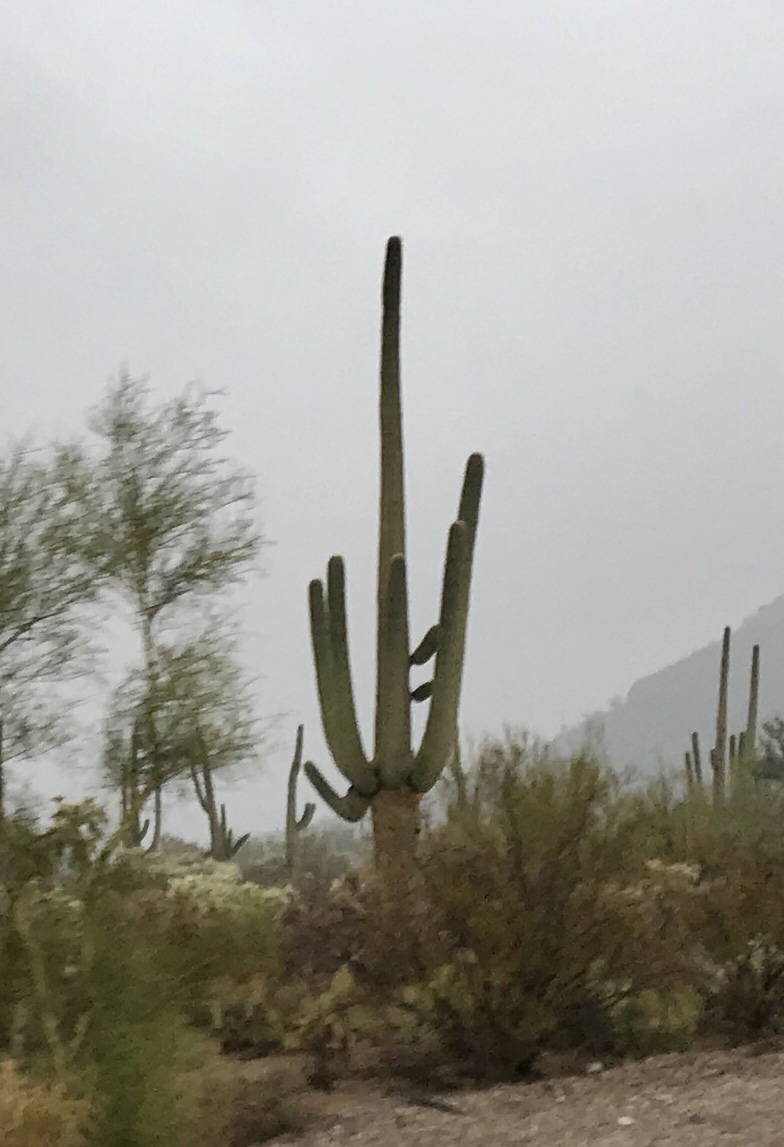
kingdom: Plantae
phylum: Tracheophyta
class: Magnoliopsida
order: Caryophyllales
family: Cactaceae
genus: Carnegiea
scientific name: Carnegiea gigantea
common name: Saguaro
